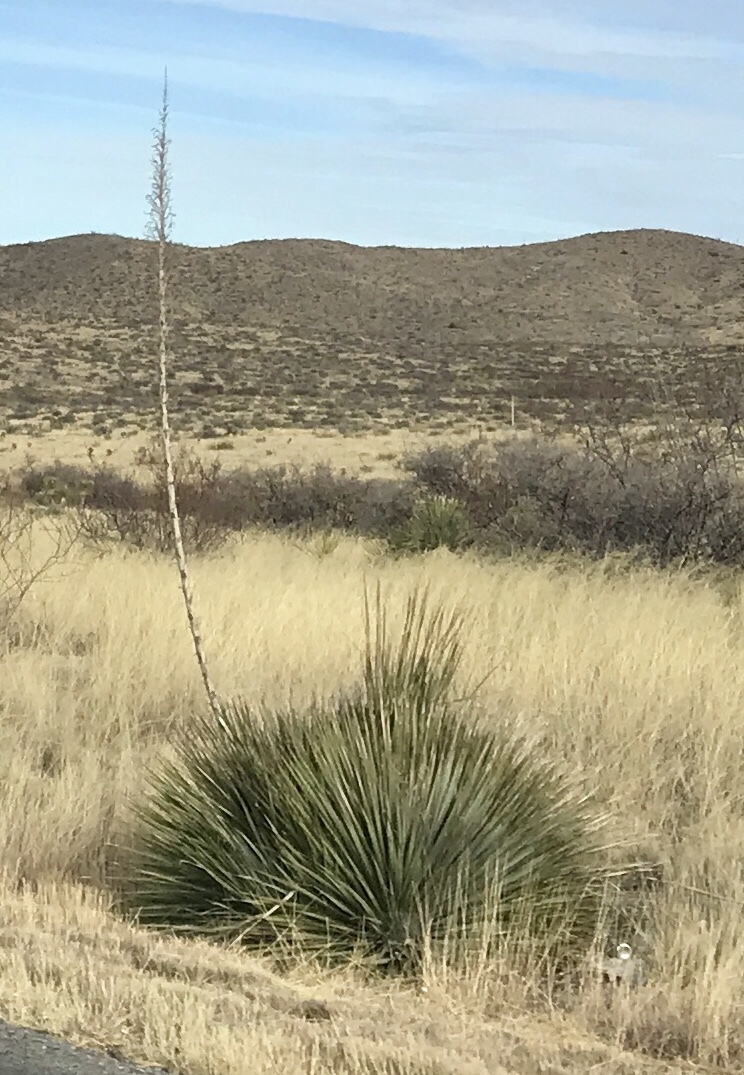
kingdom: Plantae
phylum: Tracheophyta
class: Liliopsida
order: Asparagales
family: Asparagaceae
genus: Dasylirion
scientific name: Dasylirion wheeleri
